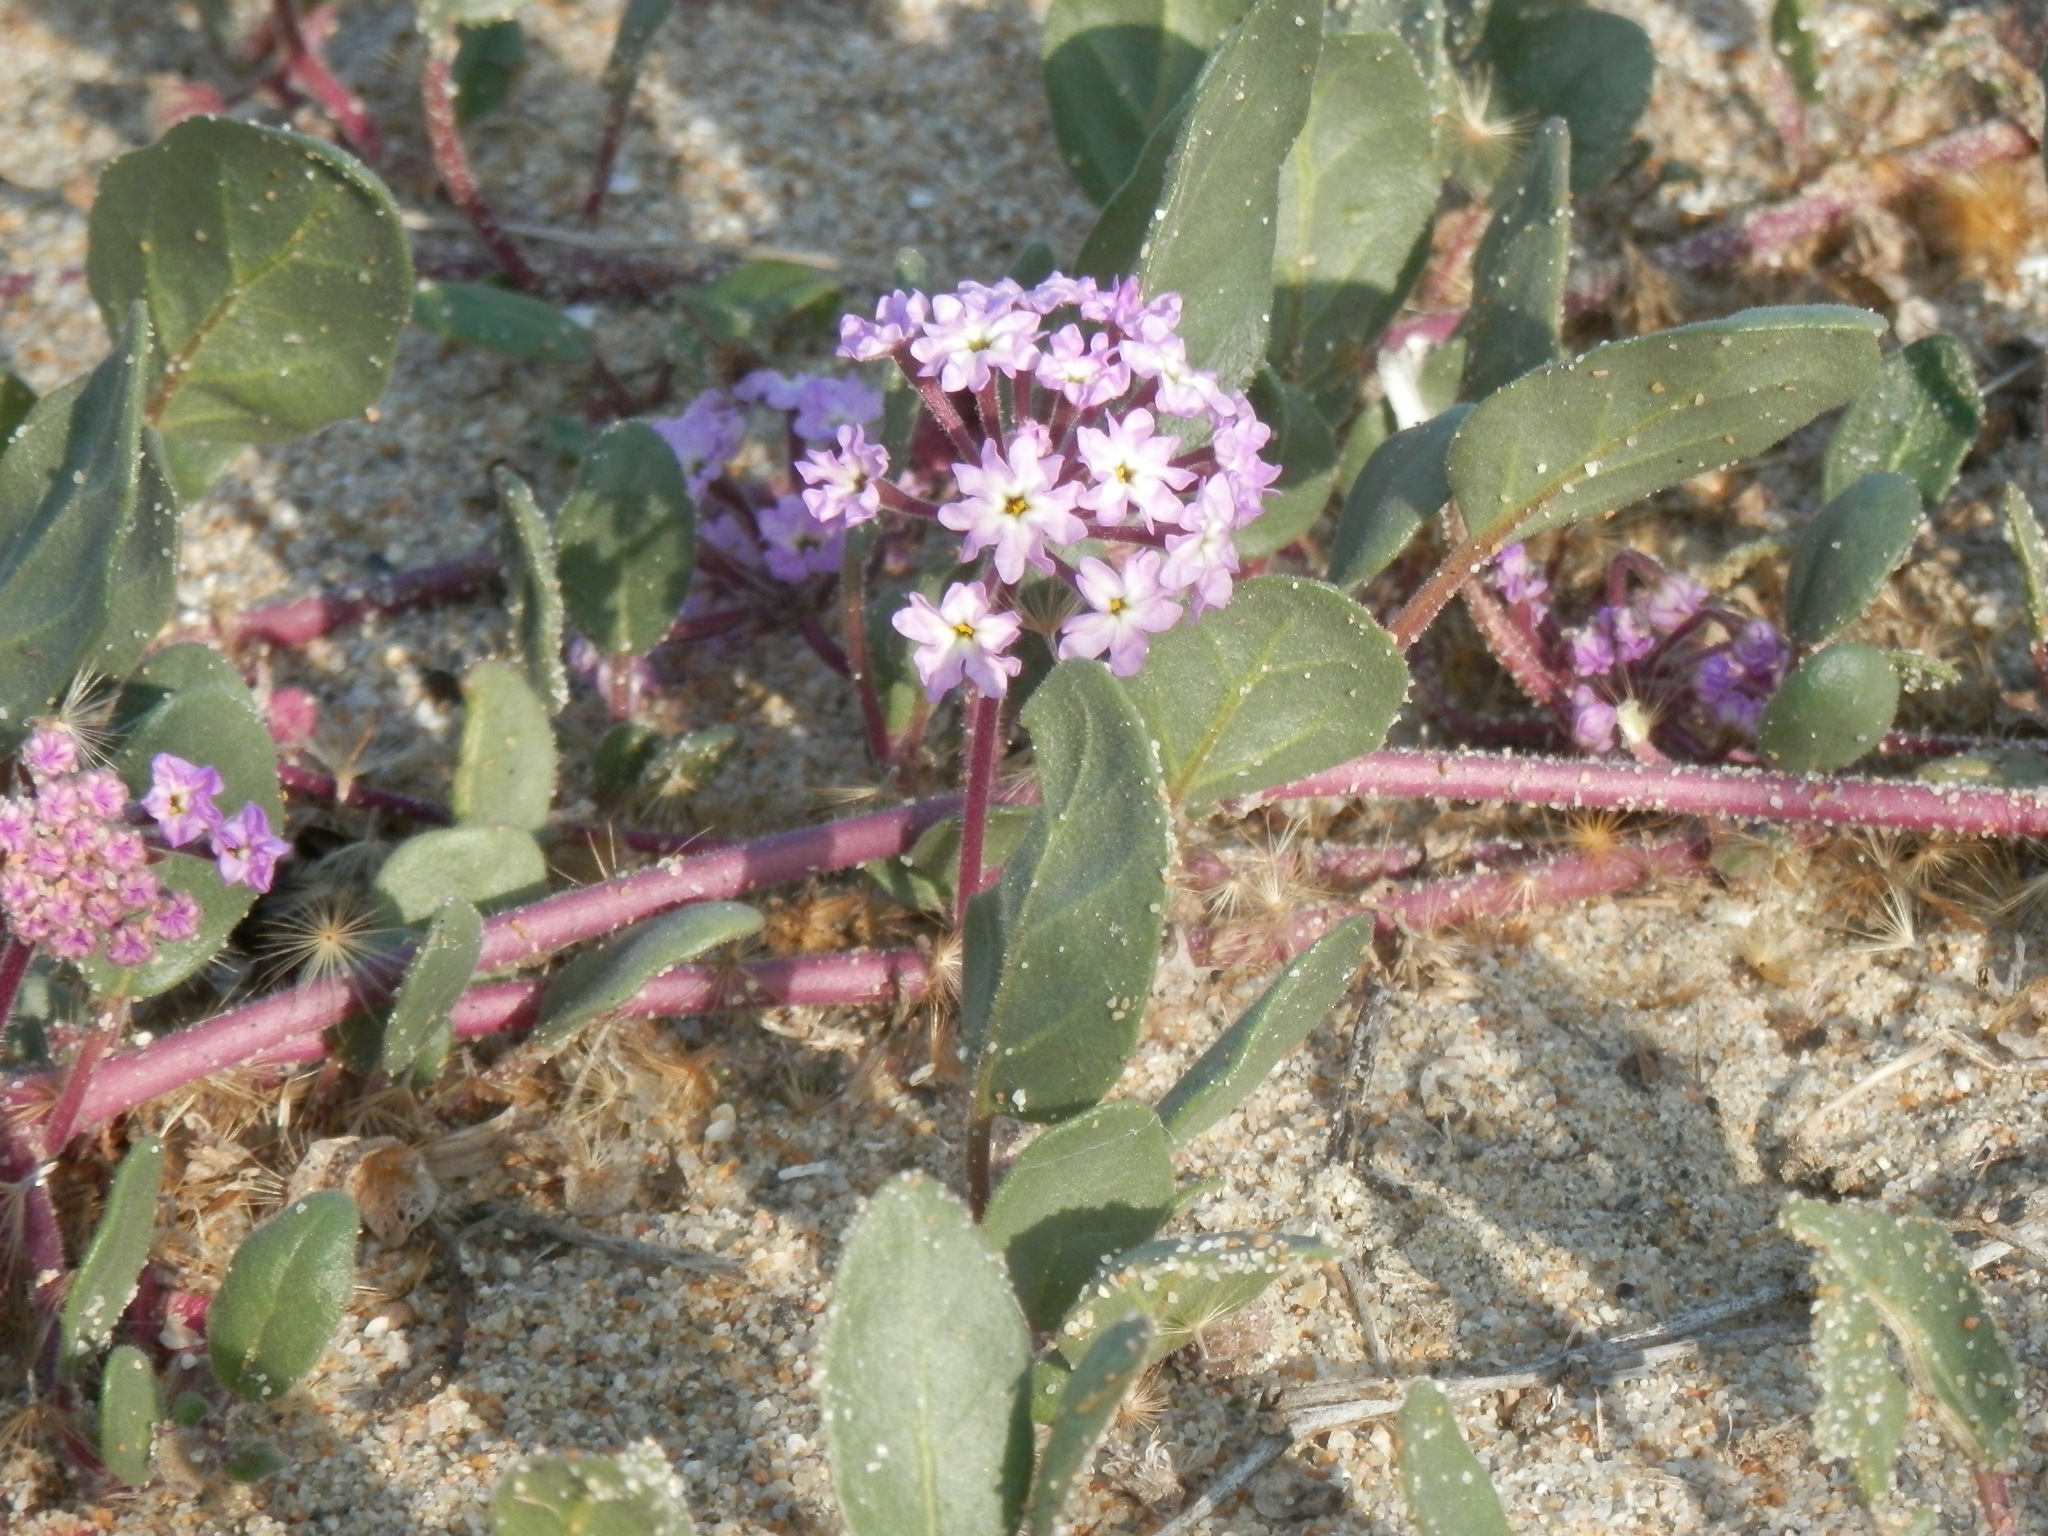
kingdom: Plantae
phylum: Tracheophyta
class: Magnoliopsida
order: Caryophyllales
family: Nyctaginaceae
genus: Abronia
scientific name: Abronia umbellata
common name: Sand-verbena
